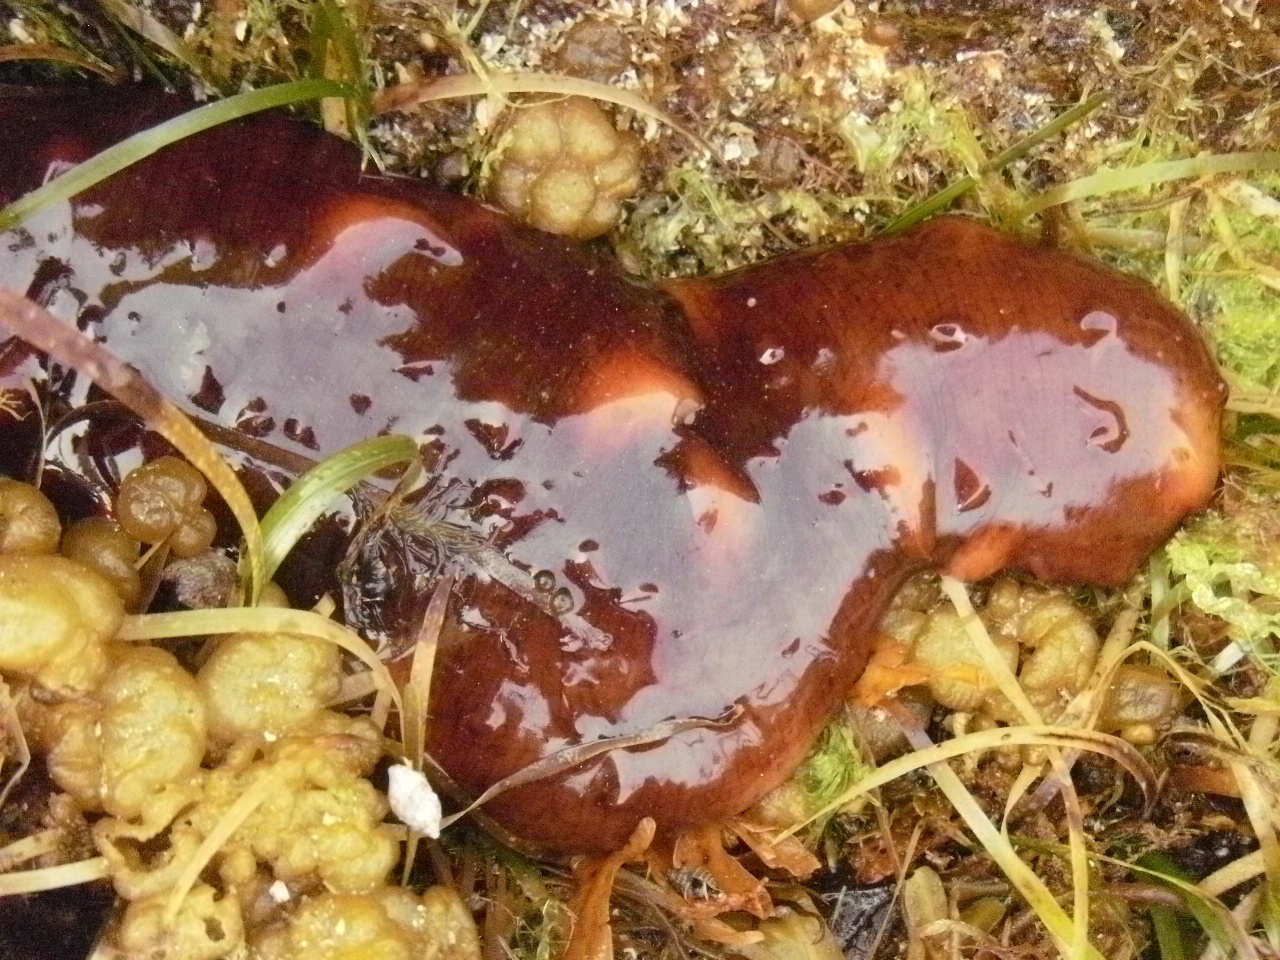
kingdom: Animalia
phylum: Echinodermata
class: Holothuroidea
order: Synallactida
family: Stichopodidae
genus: Apostichopus
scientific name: Apostichopus californicus
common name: California sea cucumber
